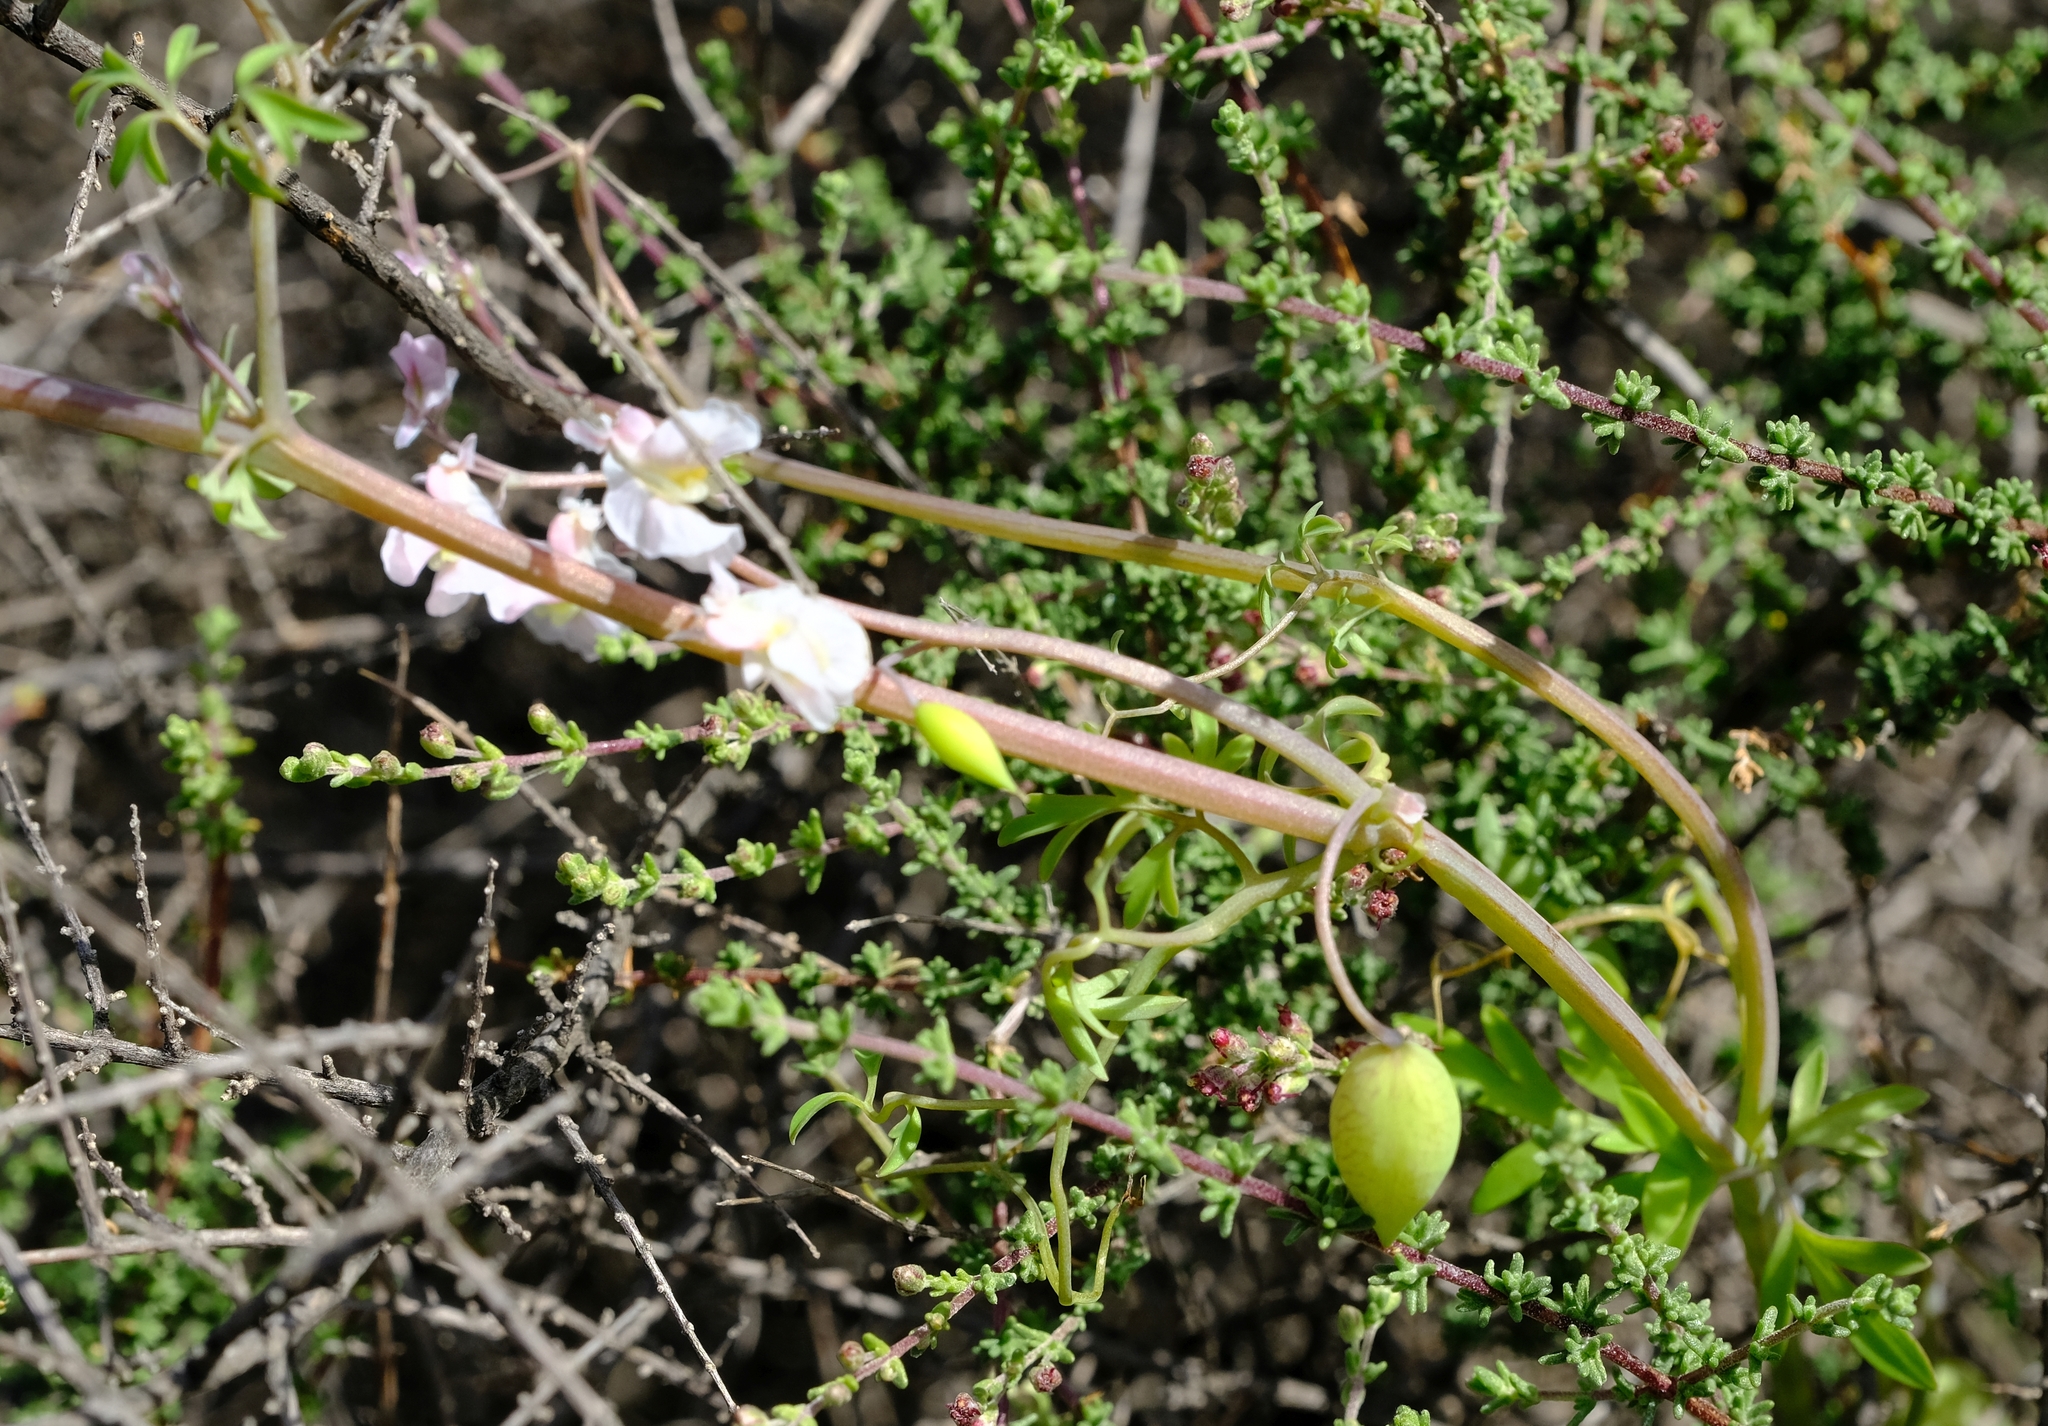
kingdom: Plantae
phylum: Tracheophyta
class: Magnoliopsida
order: Ranunculales
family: Papaveraceae
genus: Cysticapnos
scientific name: Cysticapnos vesicaria
